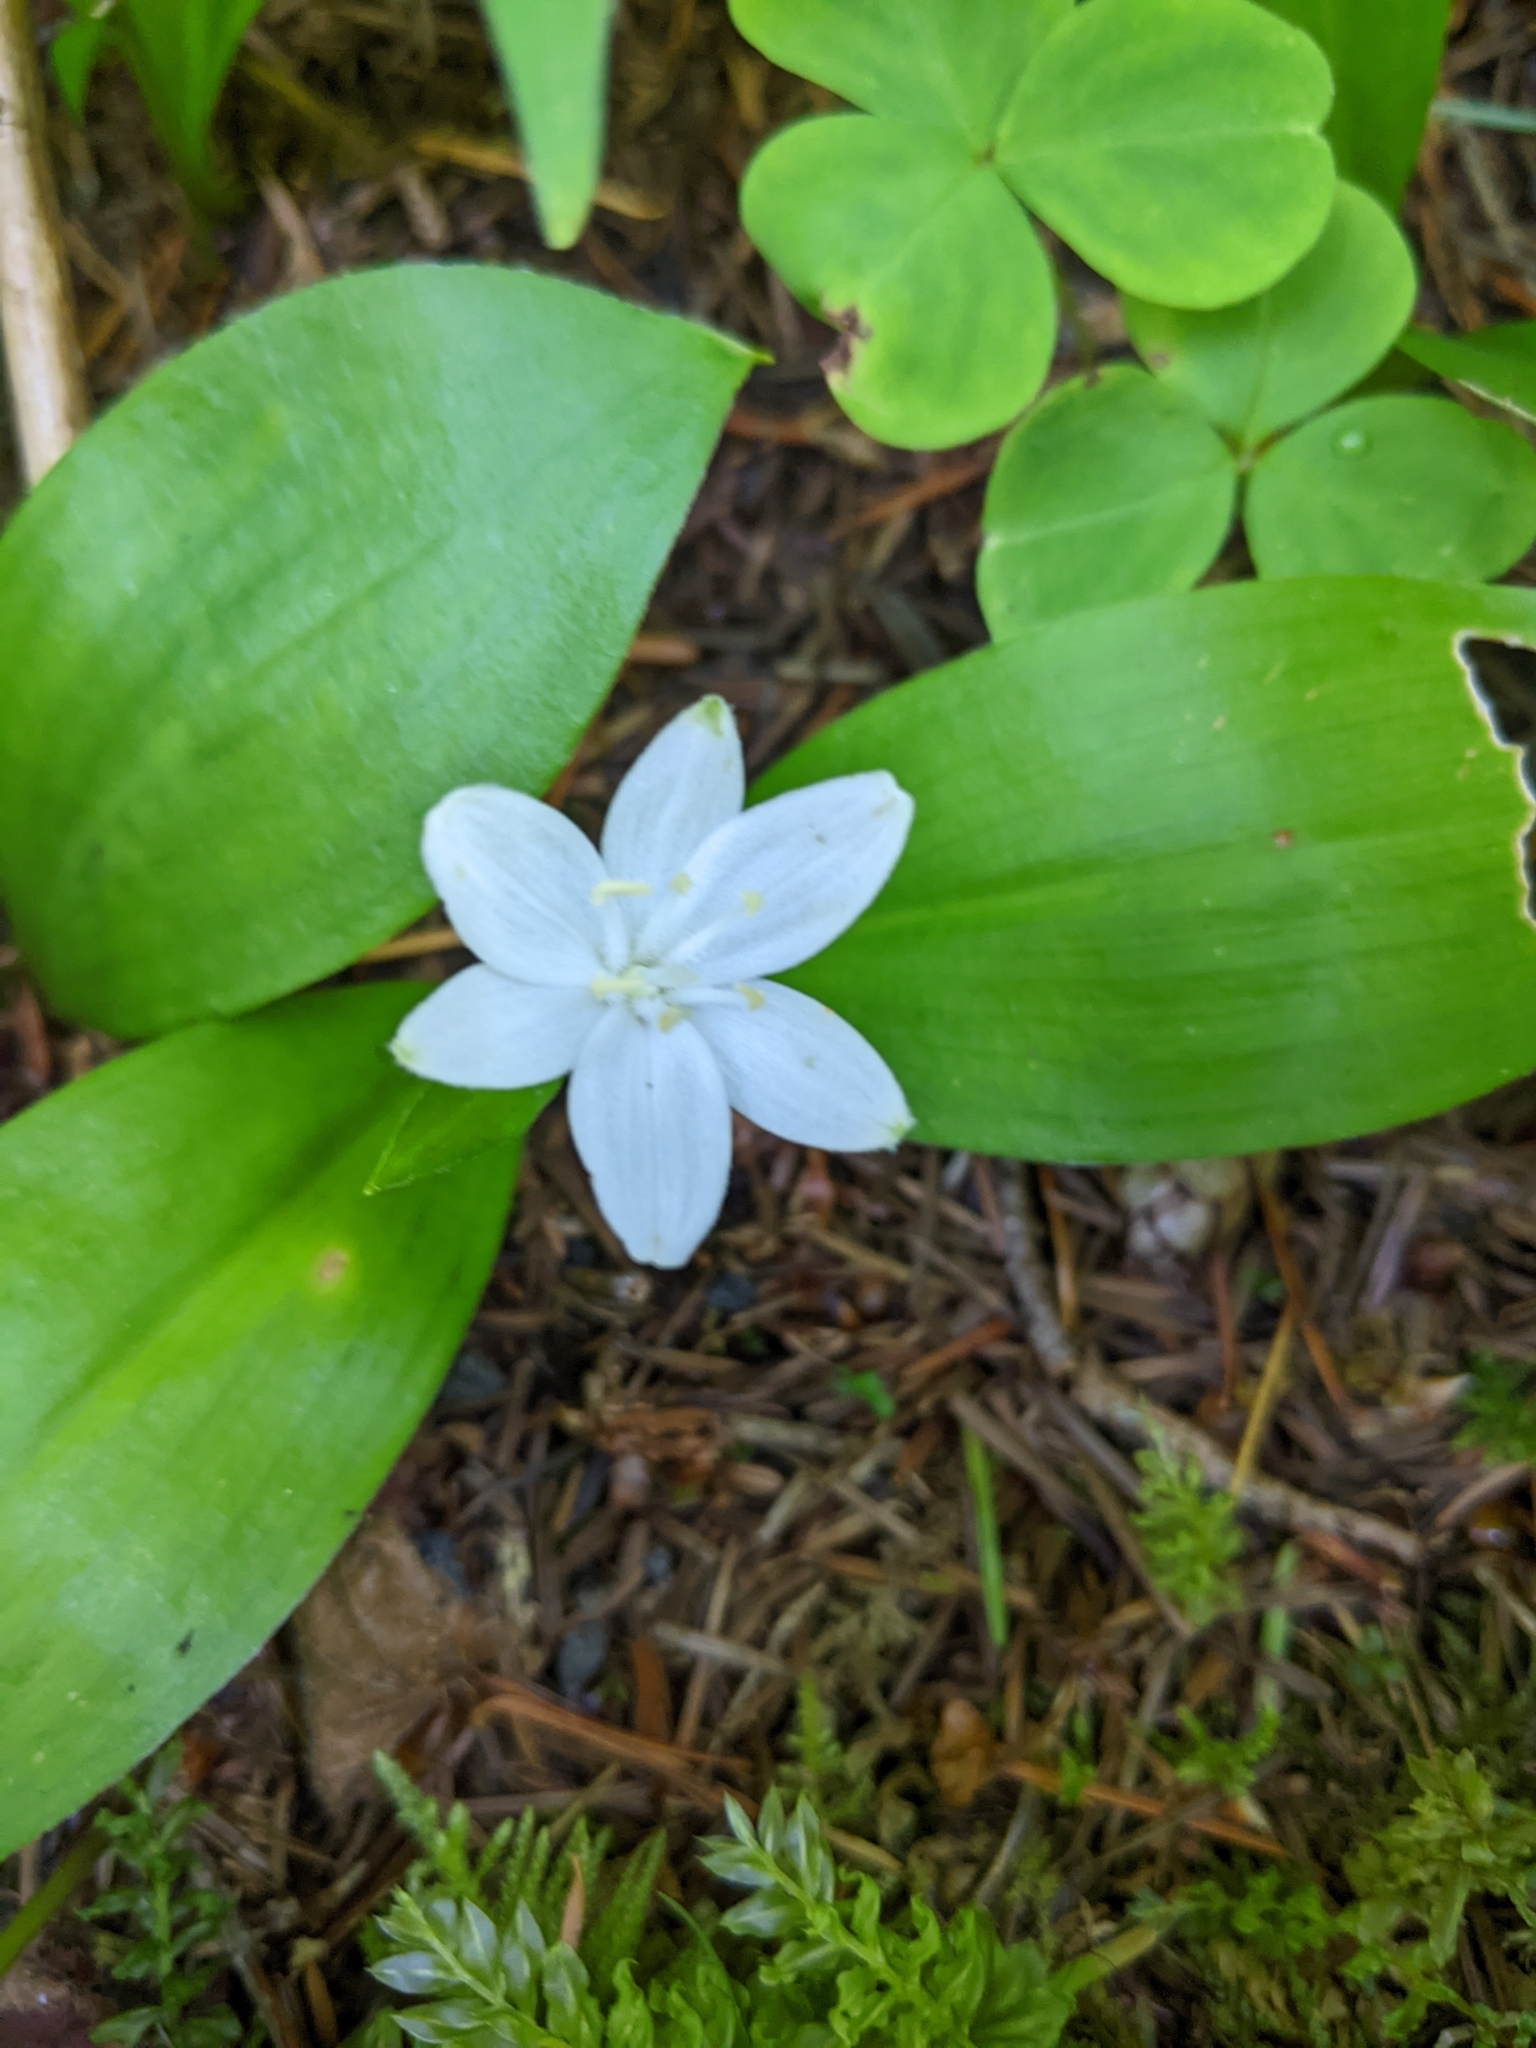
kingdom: Plantae
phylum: Tracheophyta
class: Liliopsida
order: Liliales
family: Liliaceae
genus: Clintonia
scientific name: Clintonia uniflora
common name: Queen's cup
